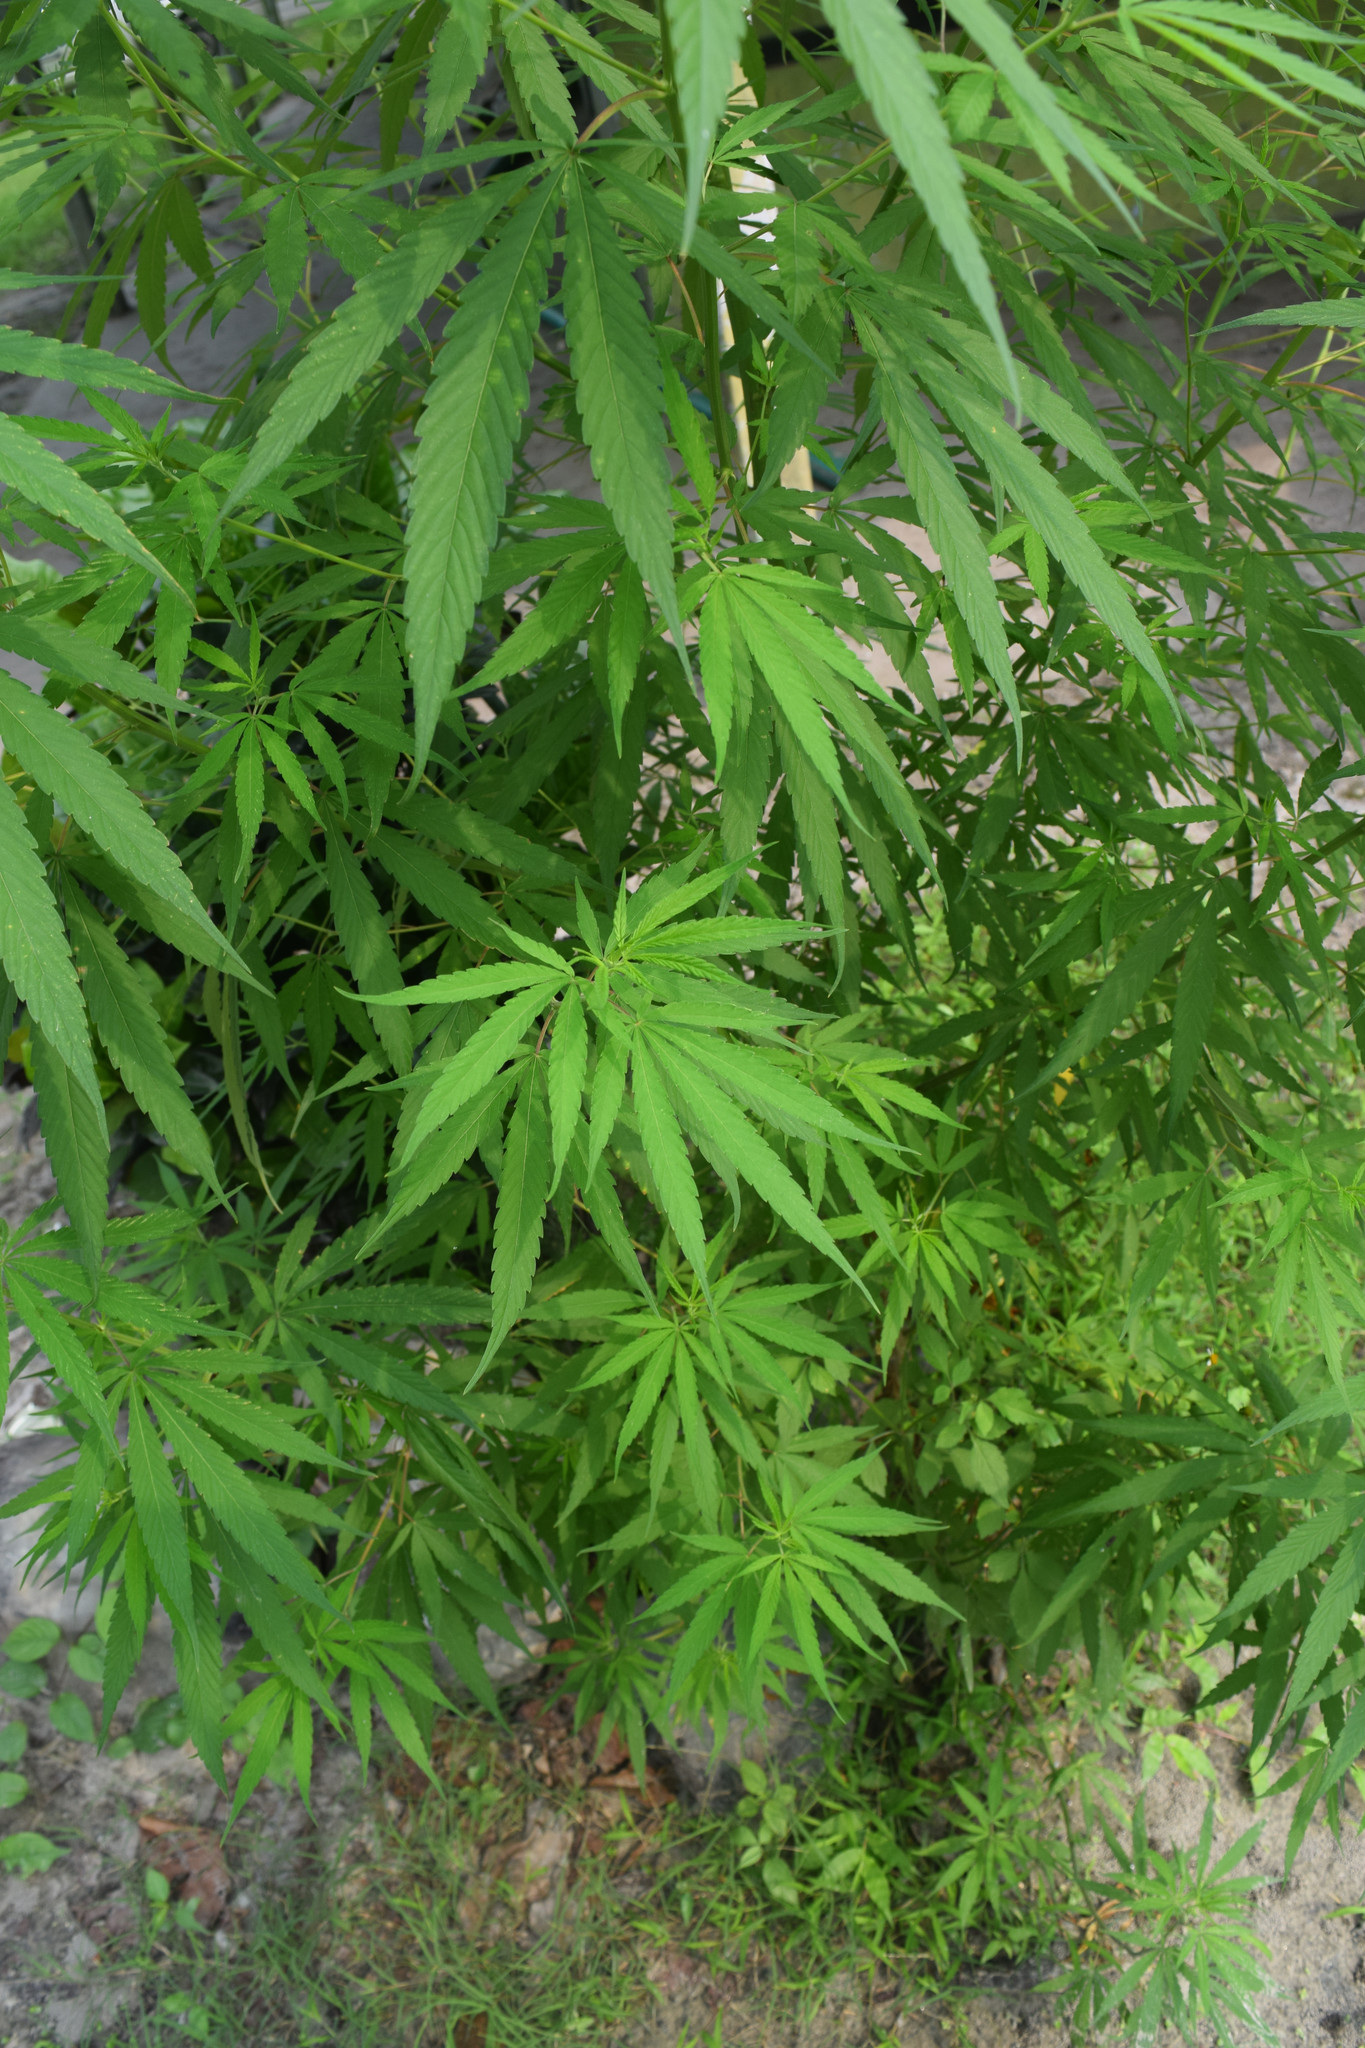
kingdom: Plantae
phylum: Tracheophyta
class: Magnoliopsida
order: Rosales
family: Cannabaceae
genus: Cannabis
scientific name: Cannabis sativa
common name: Hemp
